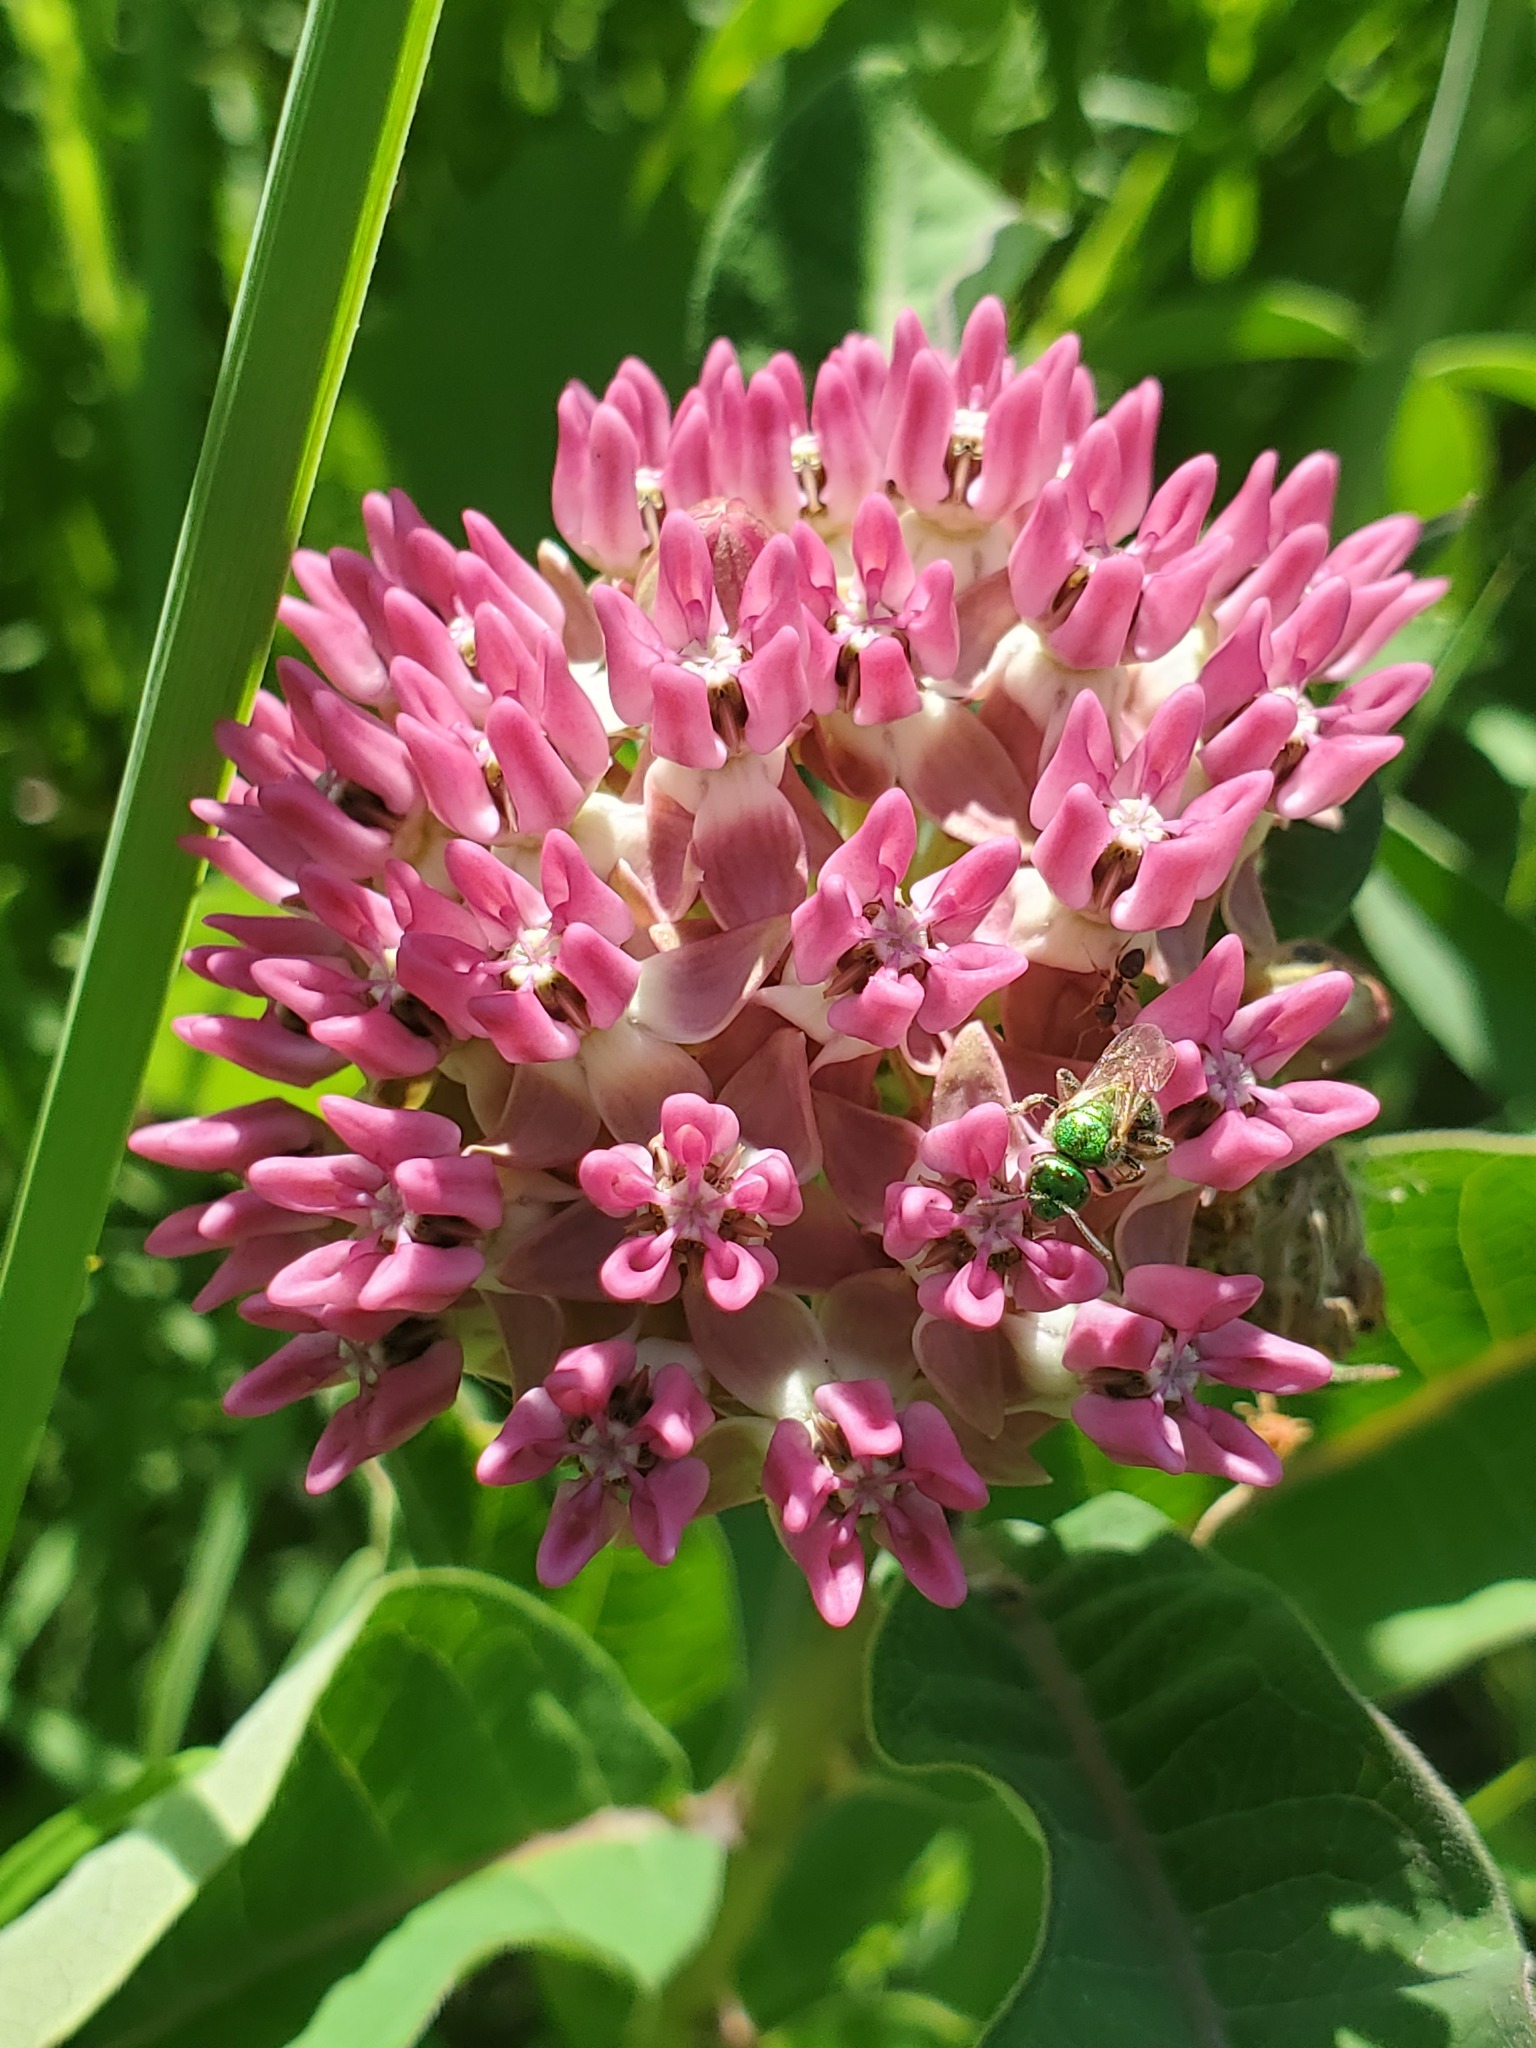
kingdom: Plantae
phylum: Tracheophyta
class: Magnoliopsida
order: Gentianales
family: Apocynaceae
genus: Asclepias
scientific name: Asclepias purpurascens
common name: Purple milkweed
